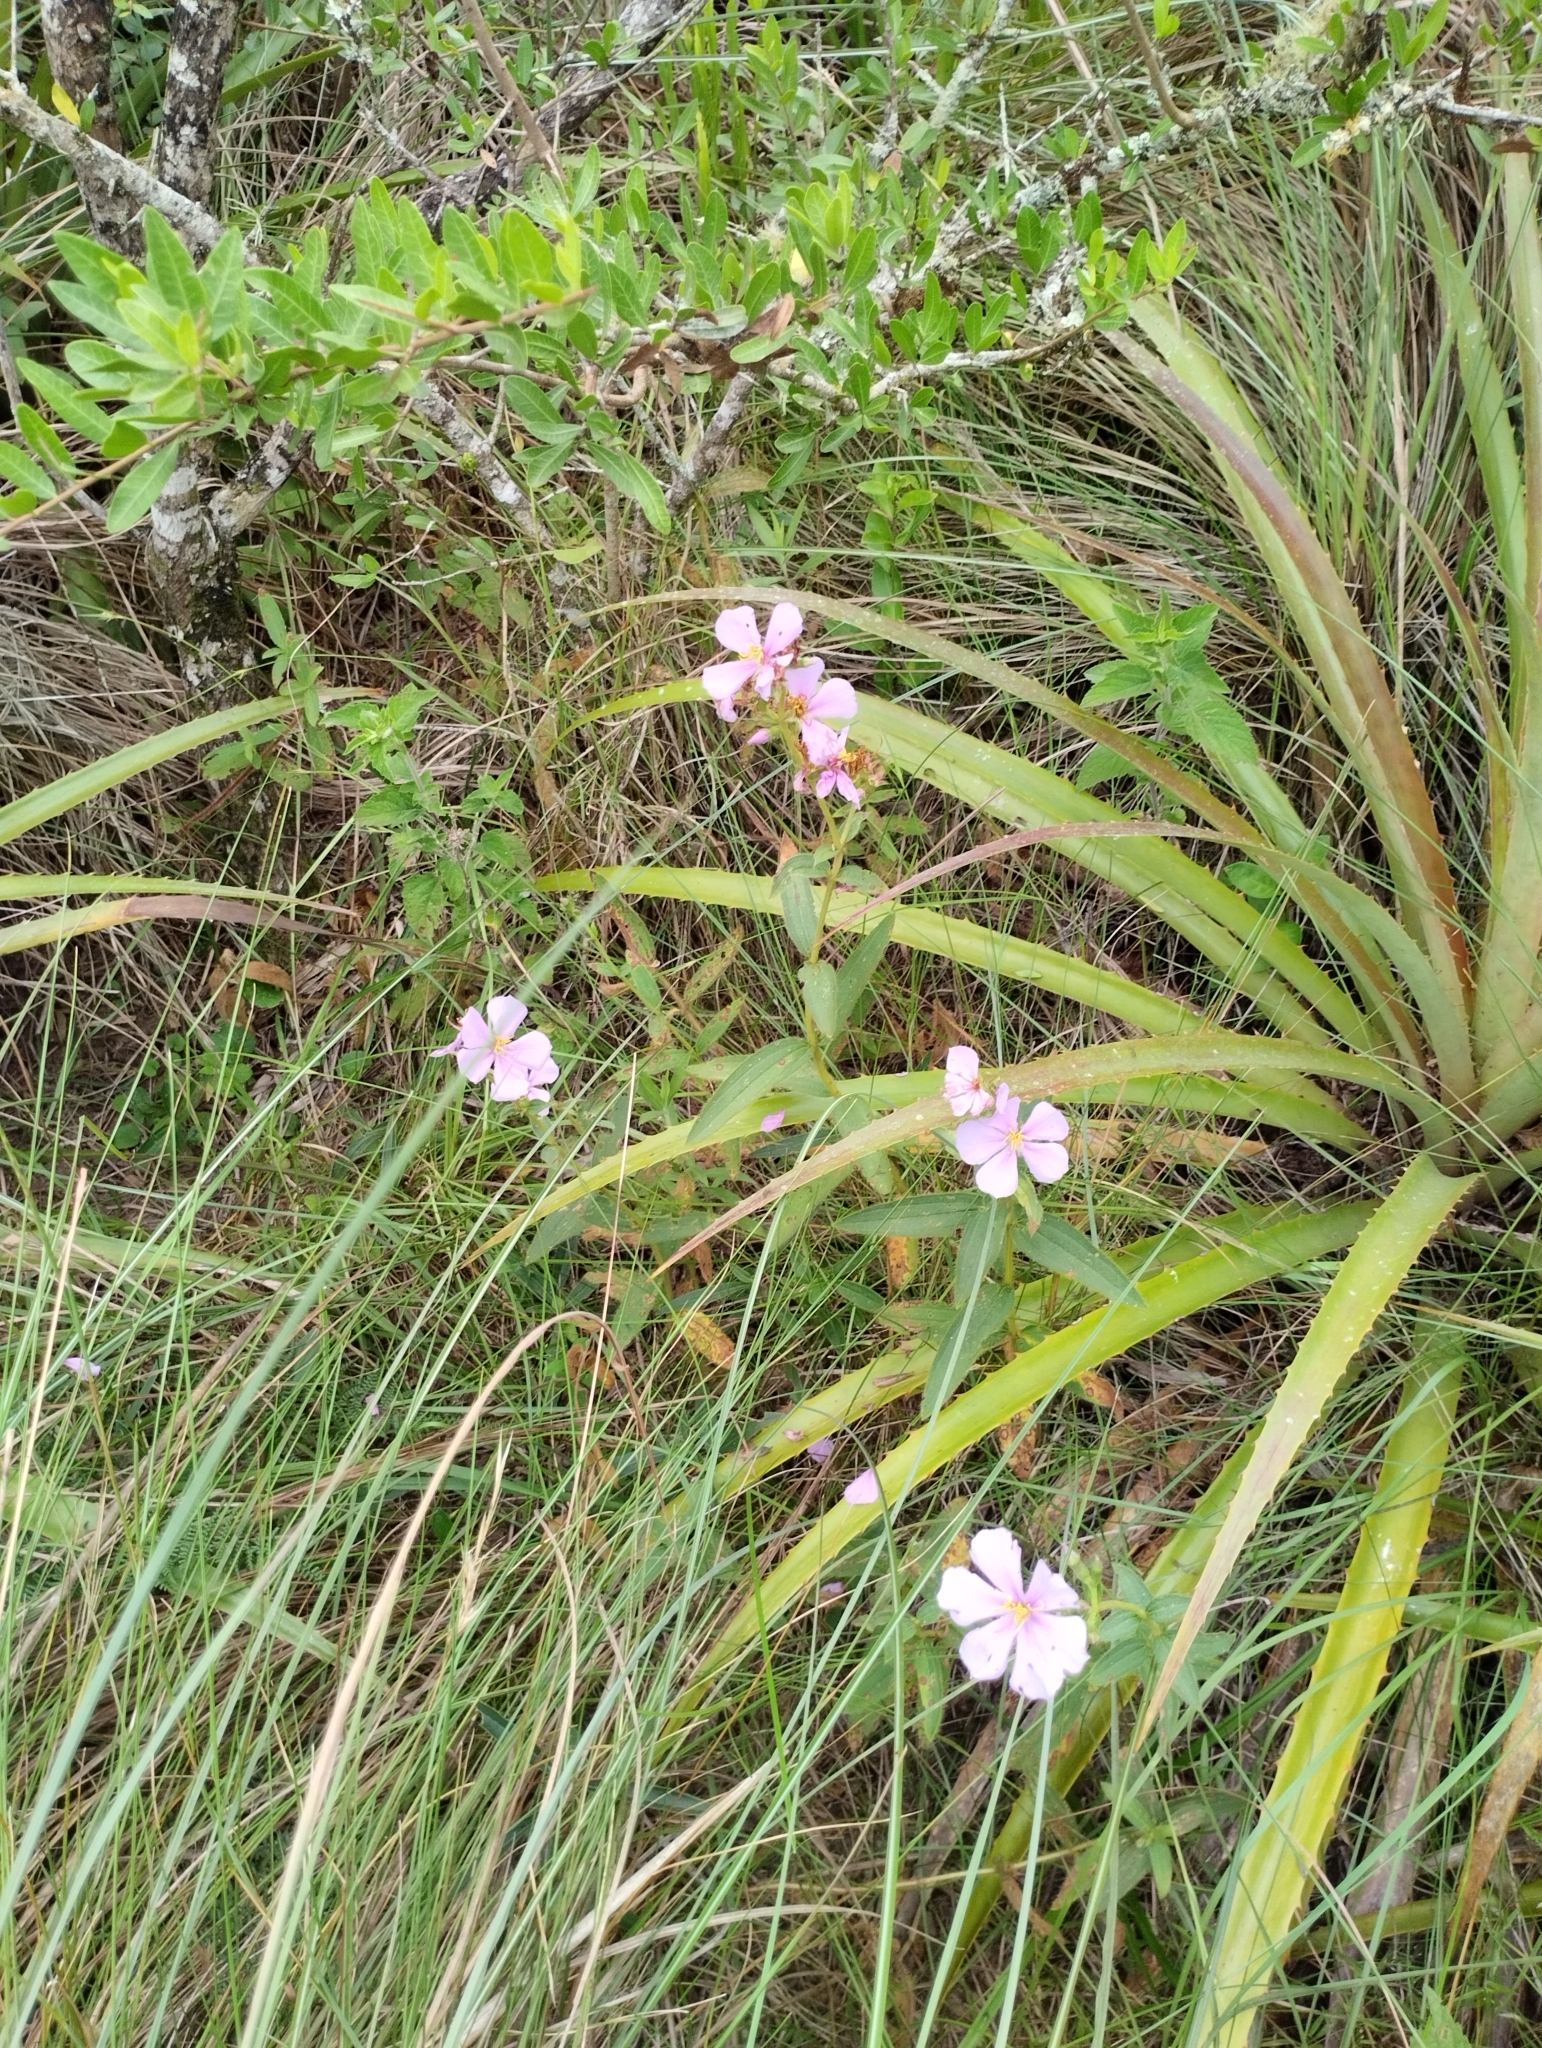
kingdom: Plantae
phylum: Tracheophyta
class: Magnoliopsida
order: Myrtales
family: Melastomataceae
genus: Chaetogastra
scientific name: Chaetogastra gracilis
